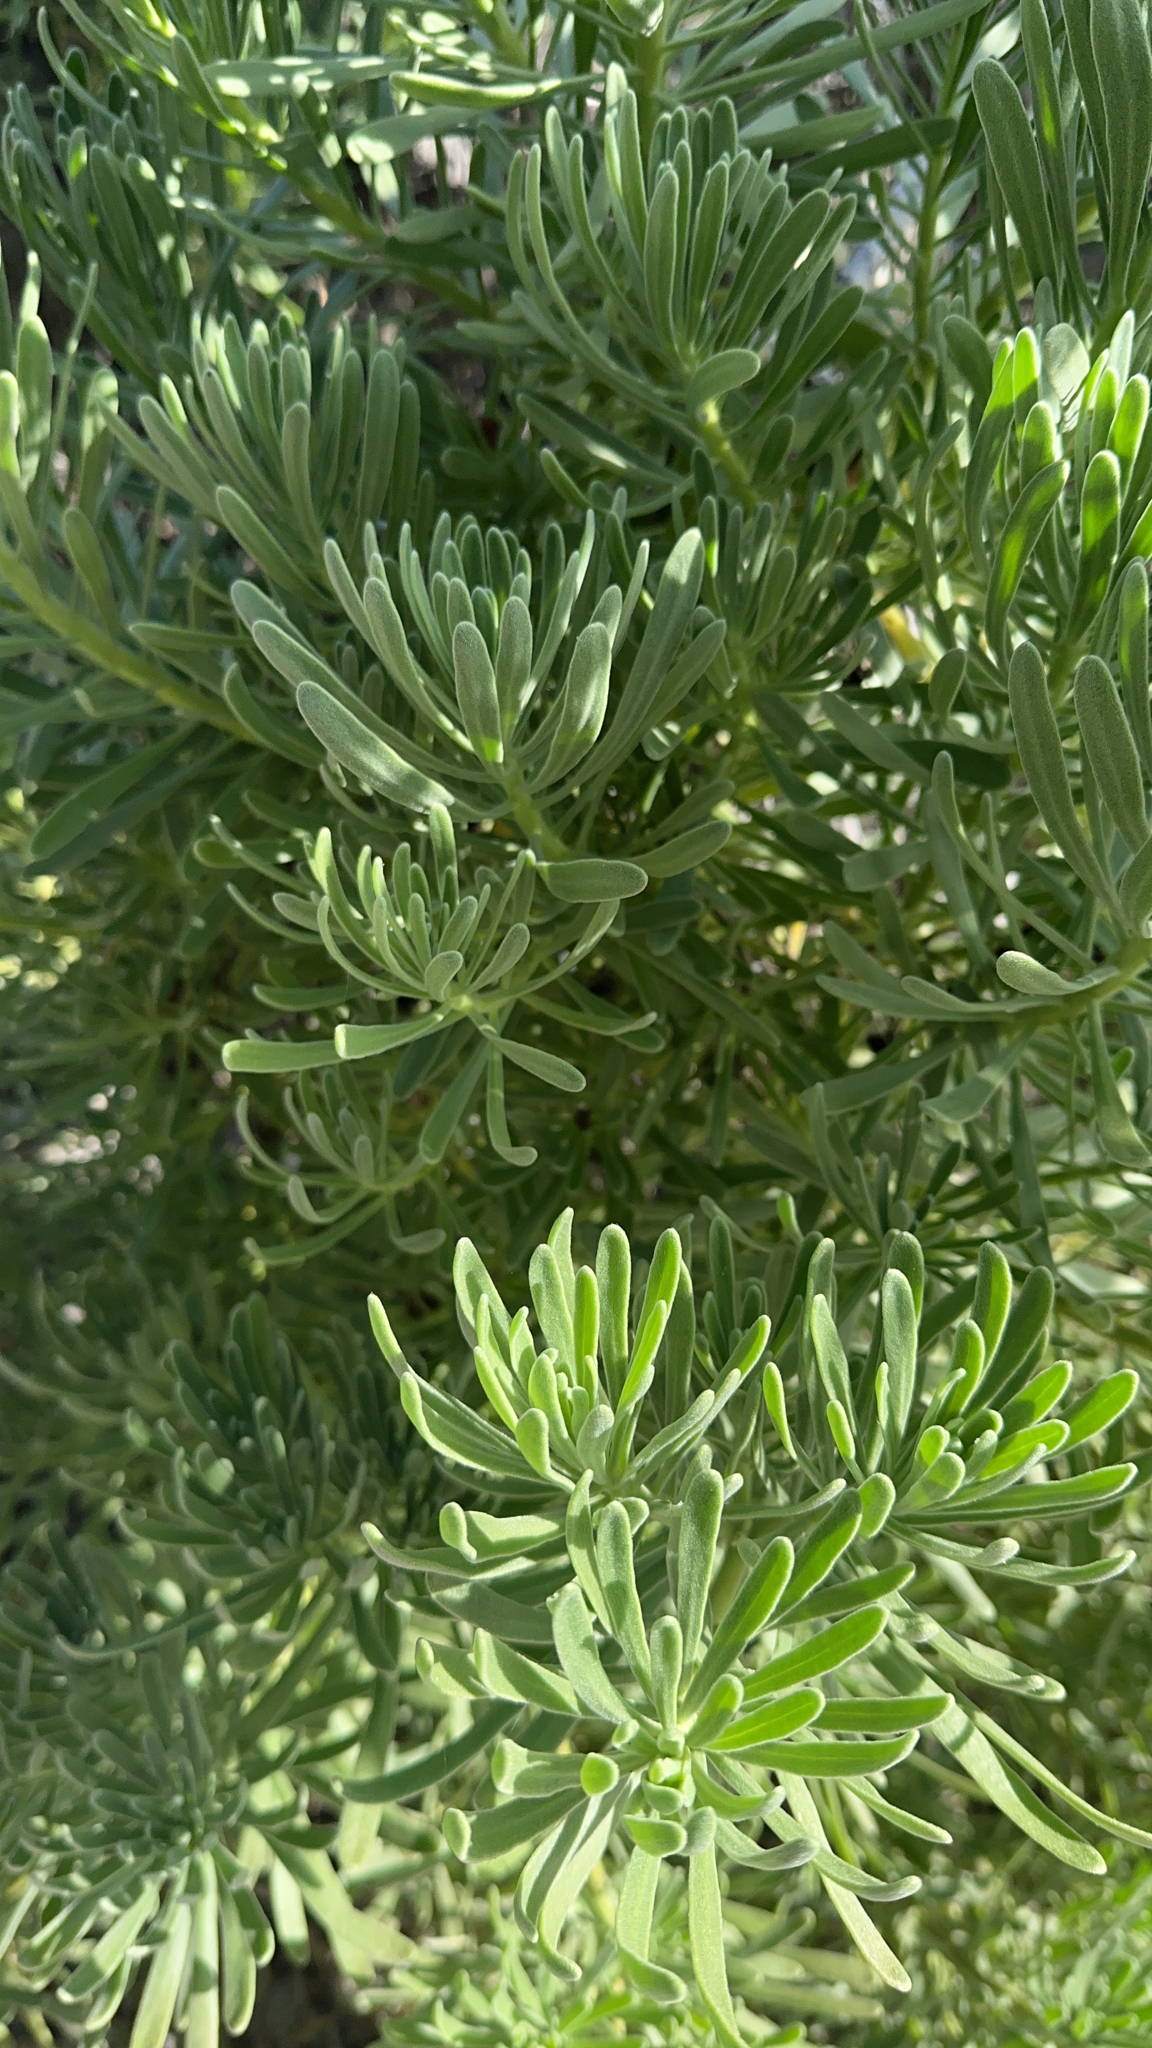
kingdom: Plantae
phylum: Tracheophyta
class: Magnoliopsida
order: Boraginales
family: Heliotropiaceae
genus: Tournefortia
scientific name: Tournefortia gnaphalodes
